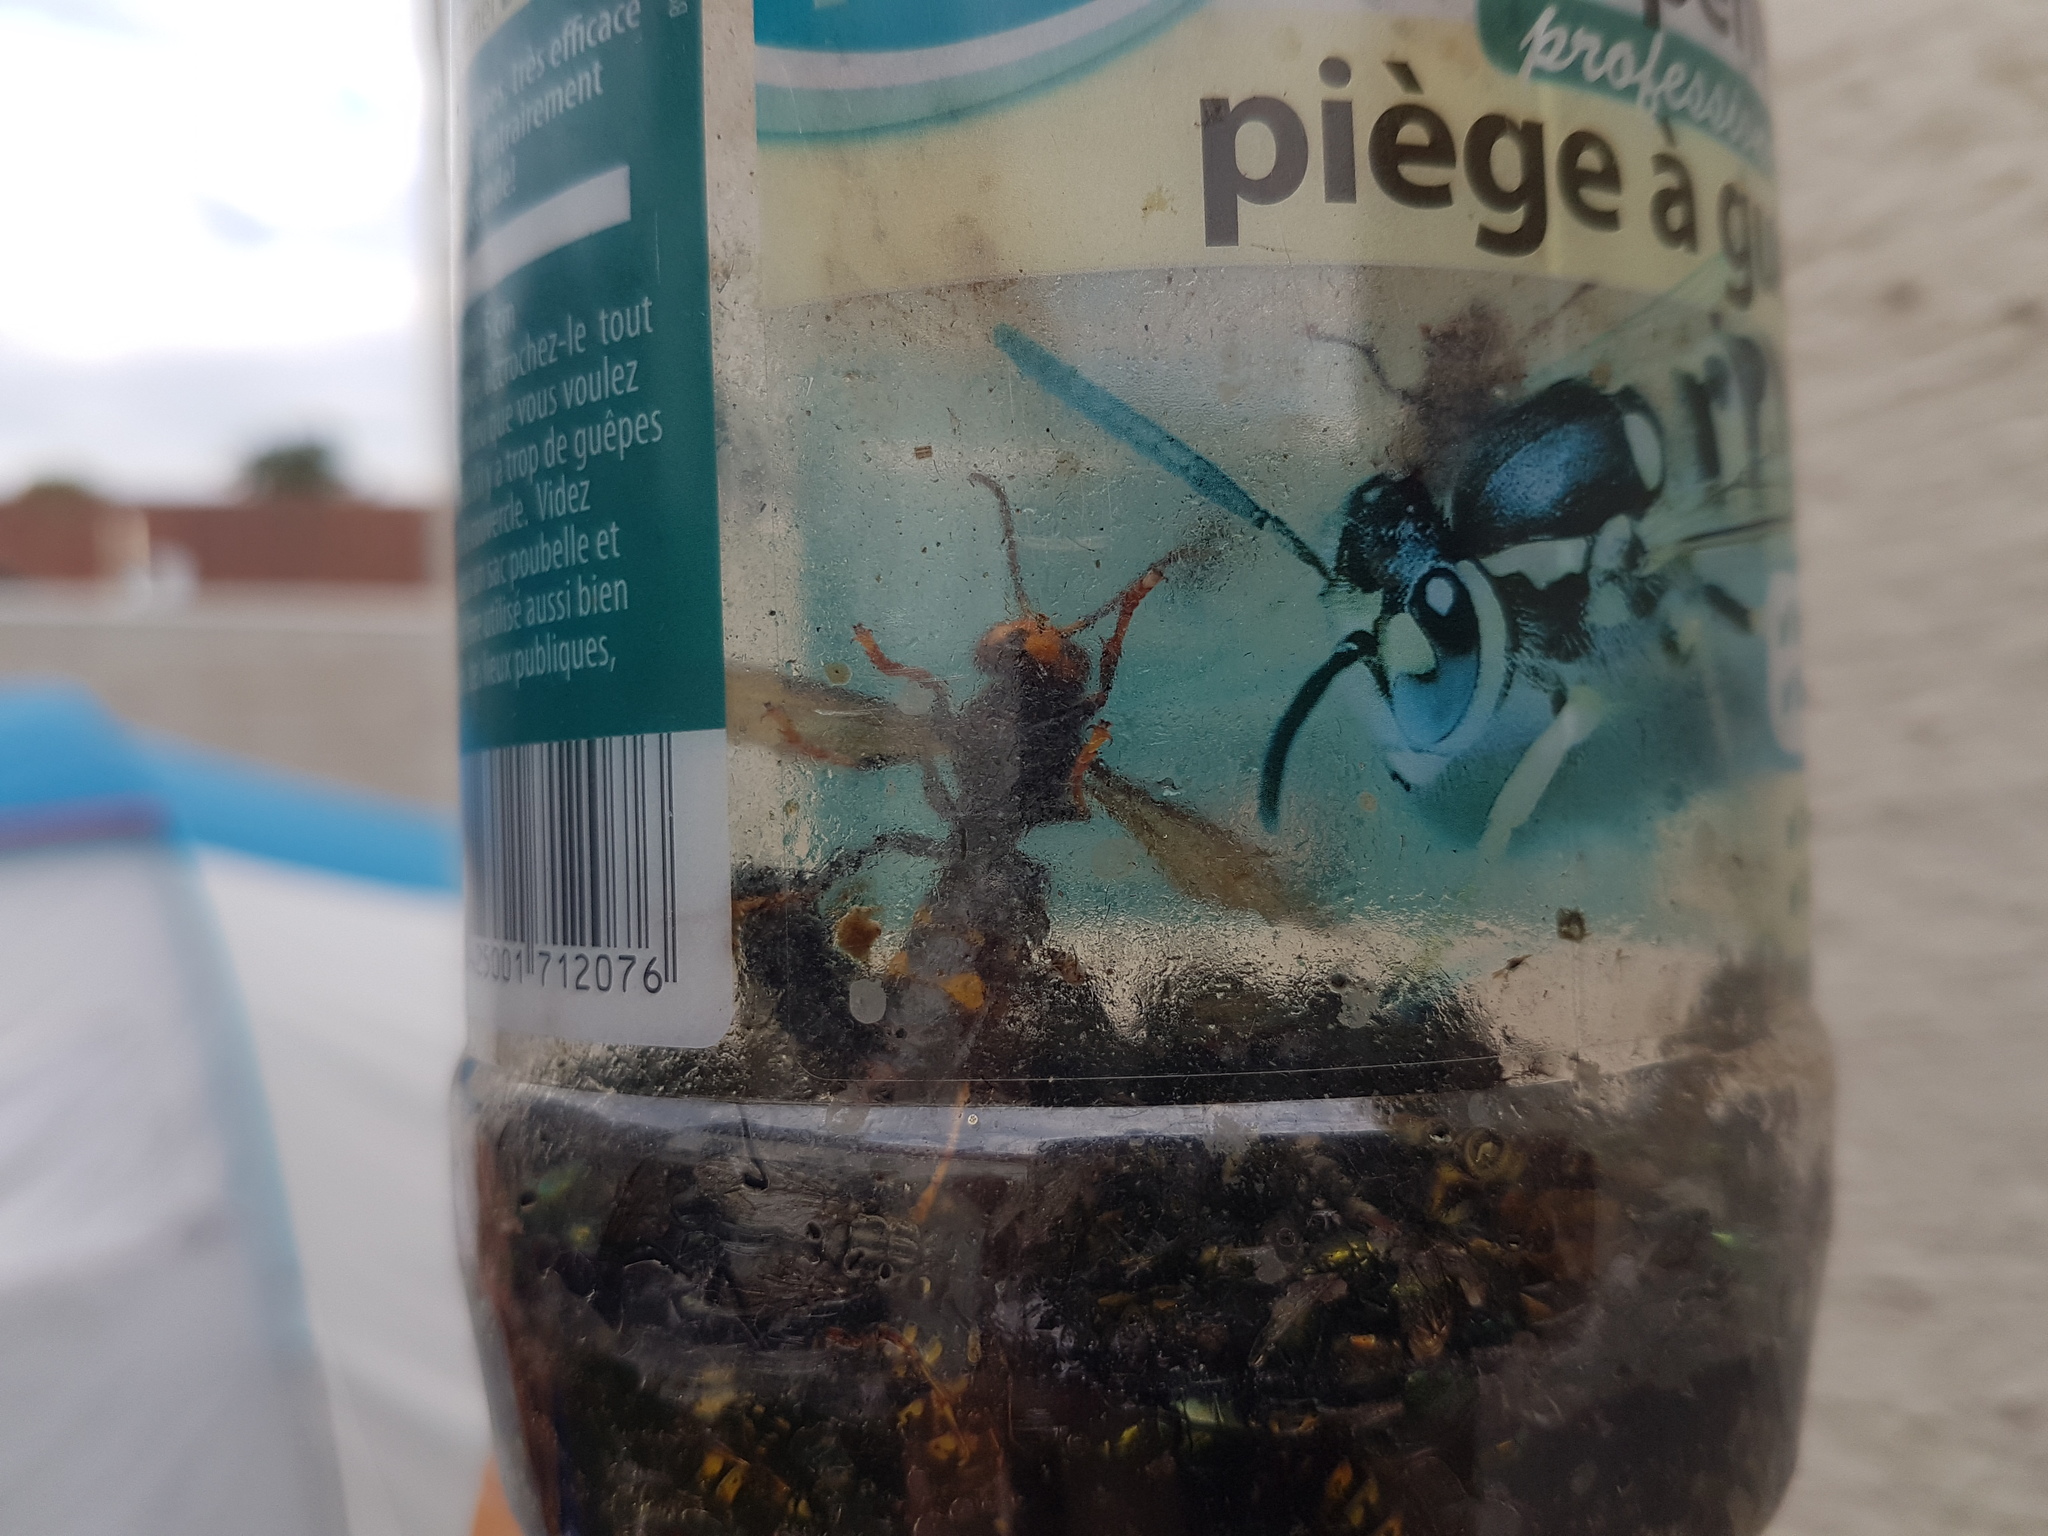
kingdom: Animalia
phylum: Arthropoda
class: Insecta
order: Hymenoptera
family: Vespidae
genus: Vespa
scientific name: Vespa velutina
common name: Asian hornet
